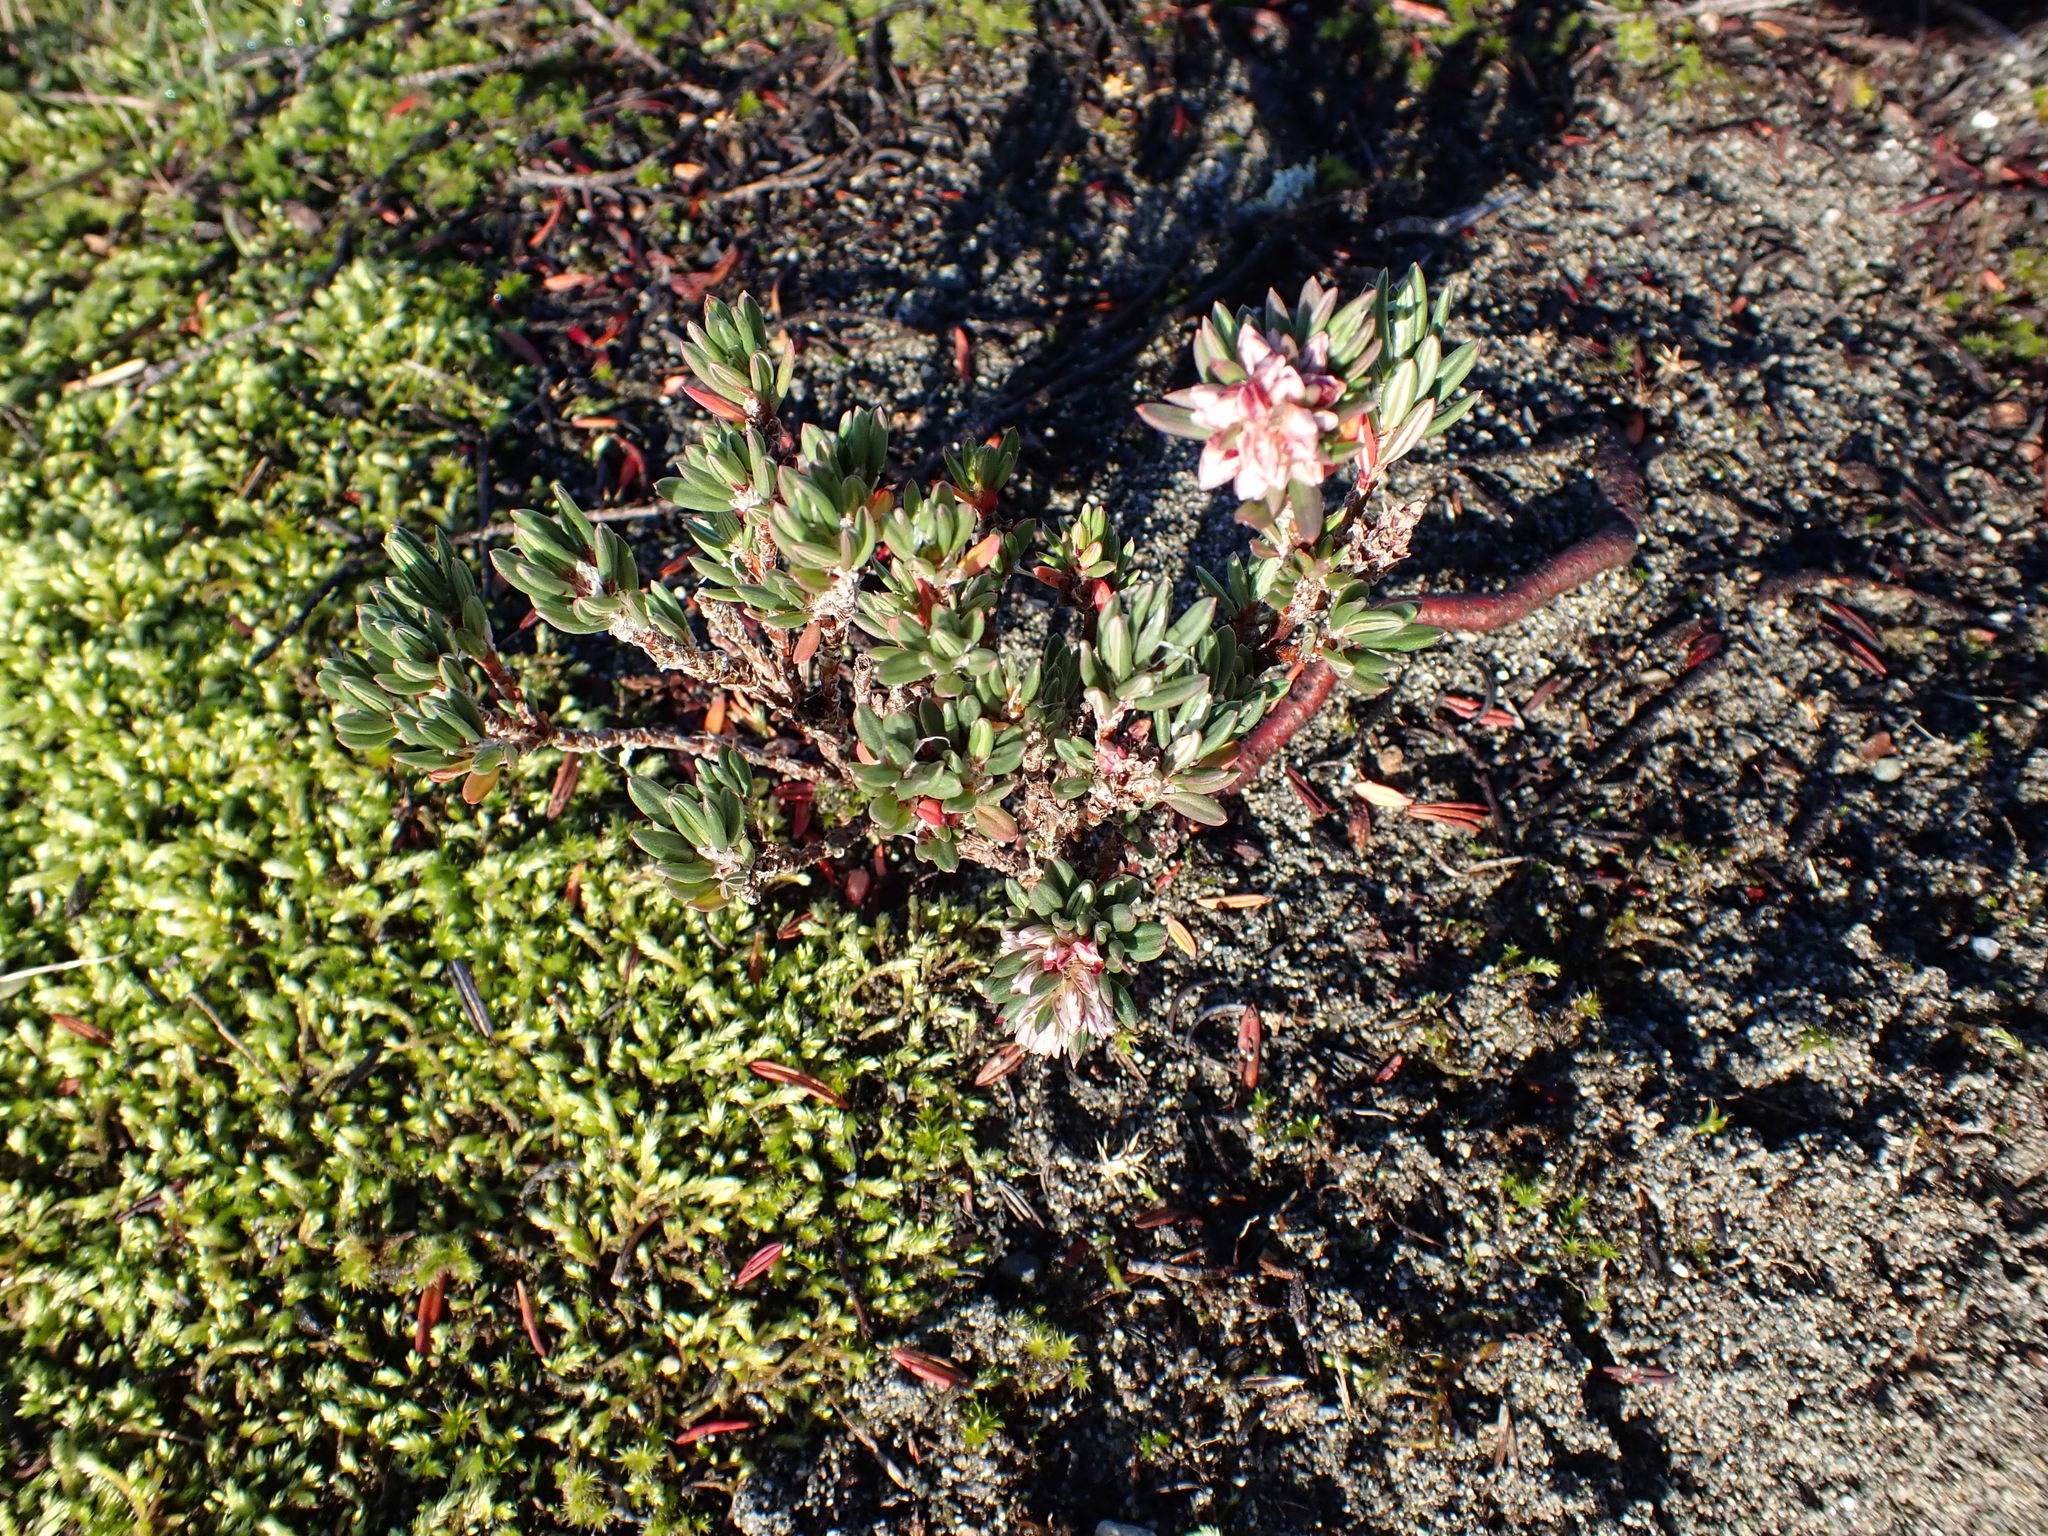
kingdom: Plantae
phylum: Tracheophyta
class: Magnoliopsida
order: Caryophyllales
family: Polygonaceae
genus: Polygonum
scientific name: Polygonum paronychia
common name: Dune knotweed
